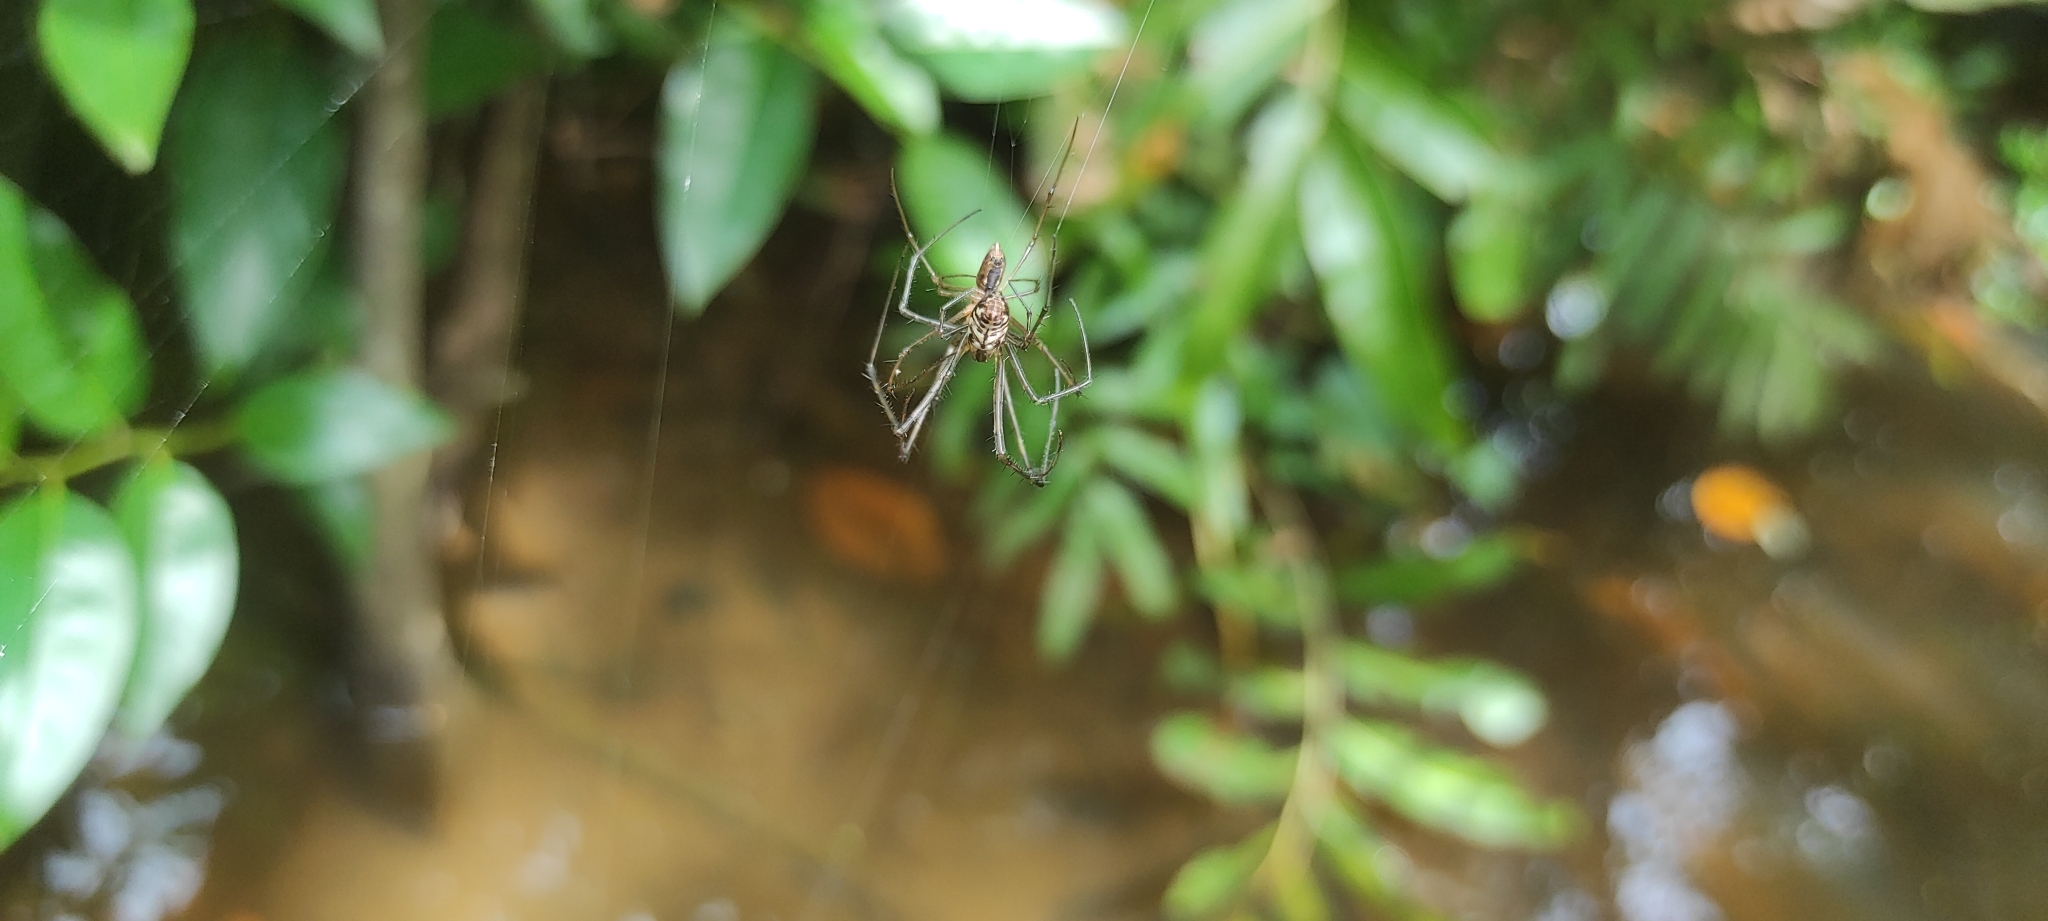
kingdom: Animalia
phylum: Arthropoda
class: Arachnida
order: Araneae
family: Araneidae
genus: Cyrtophora
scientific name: Cyrtophora cicatrosa
